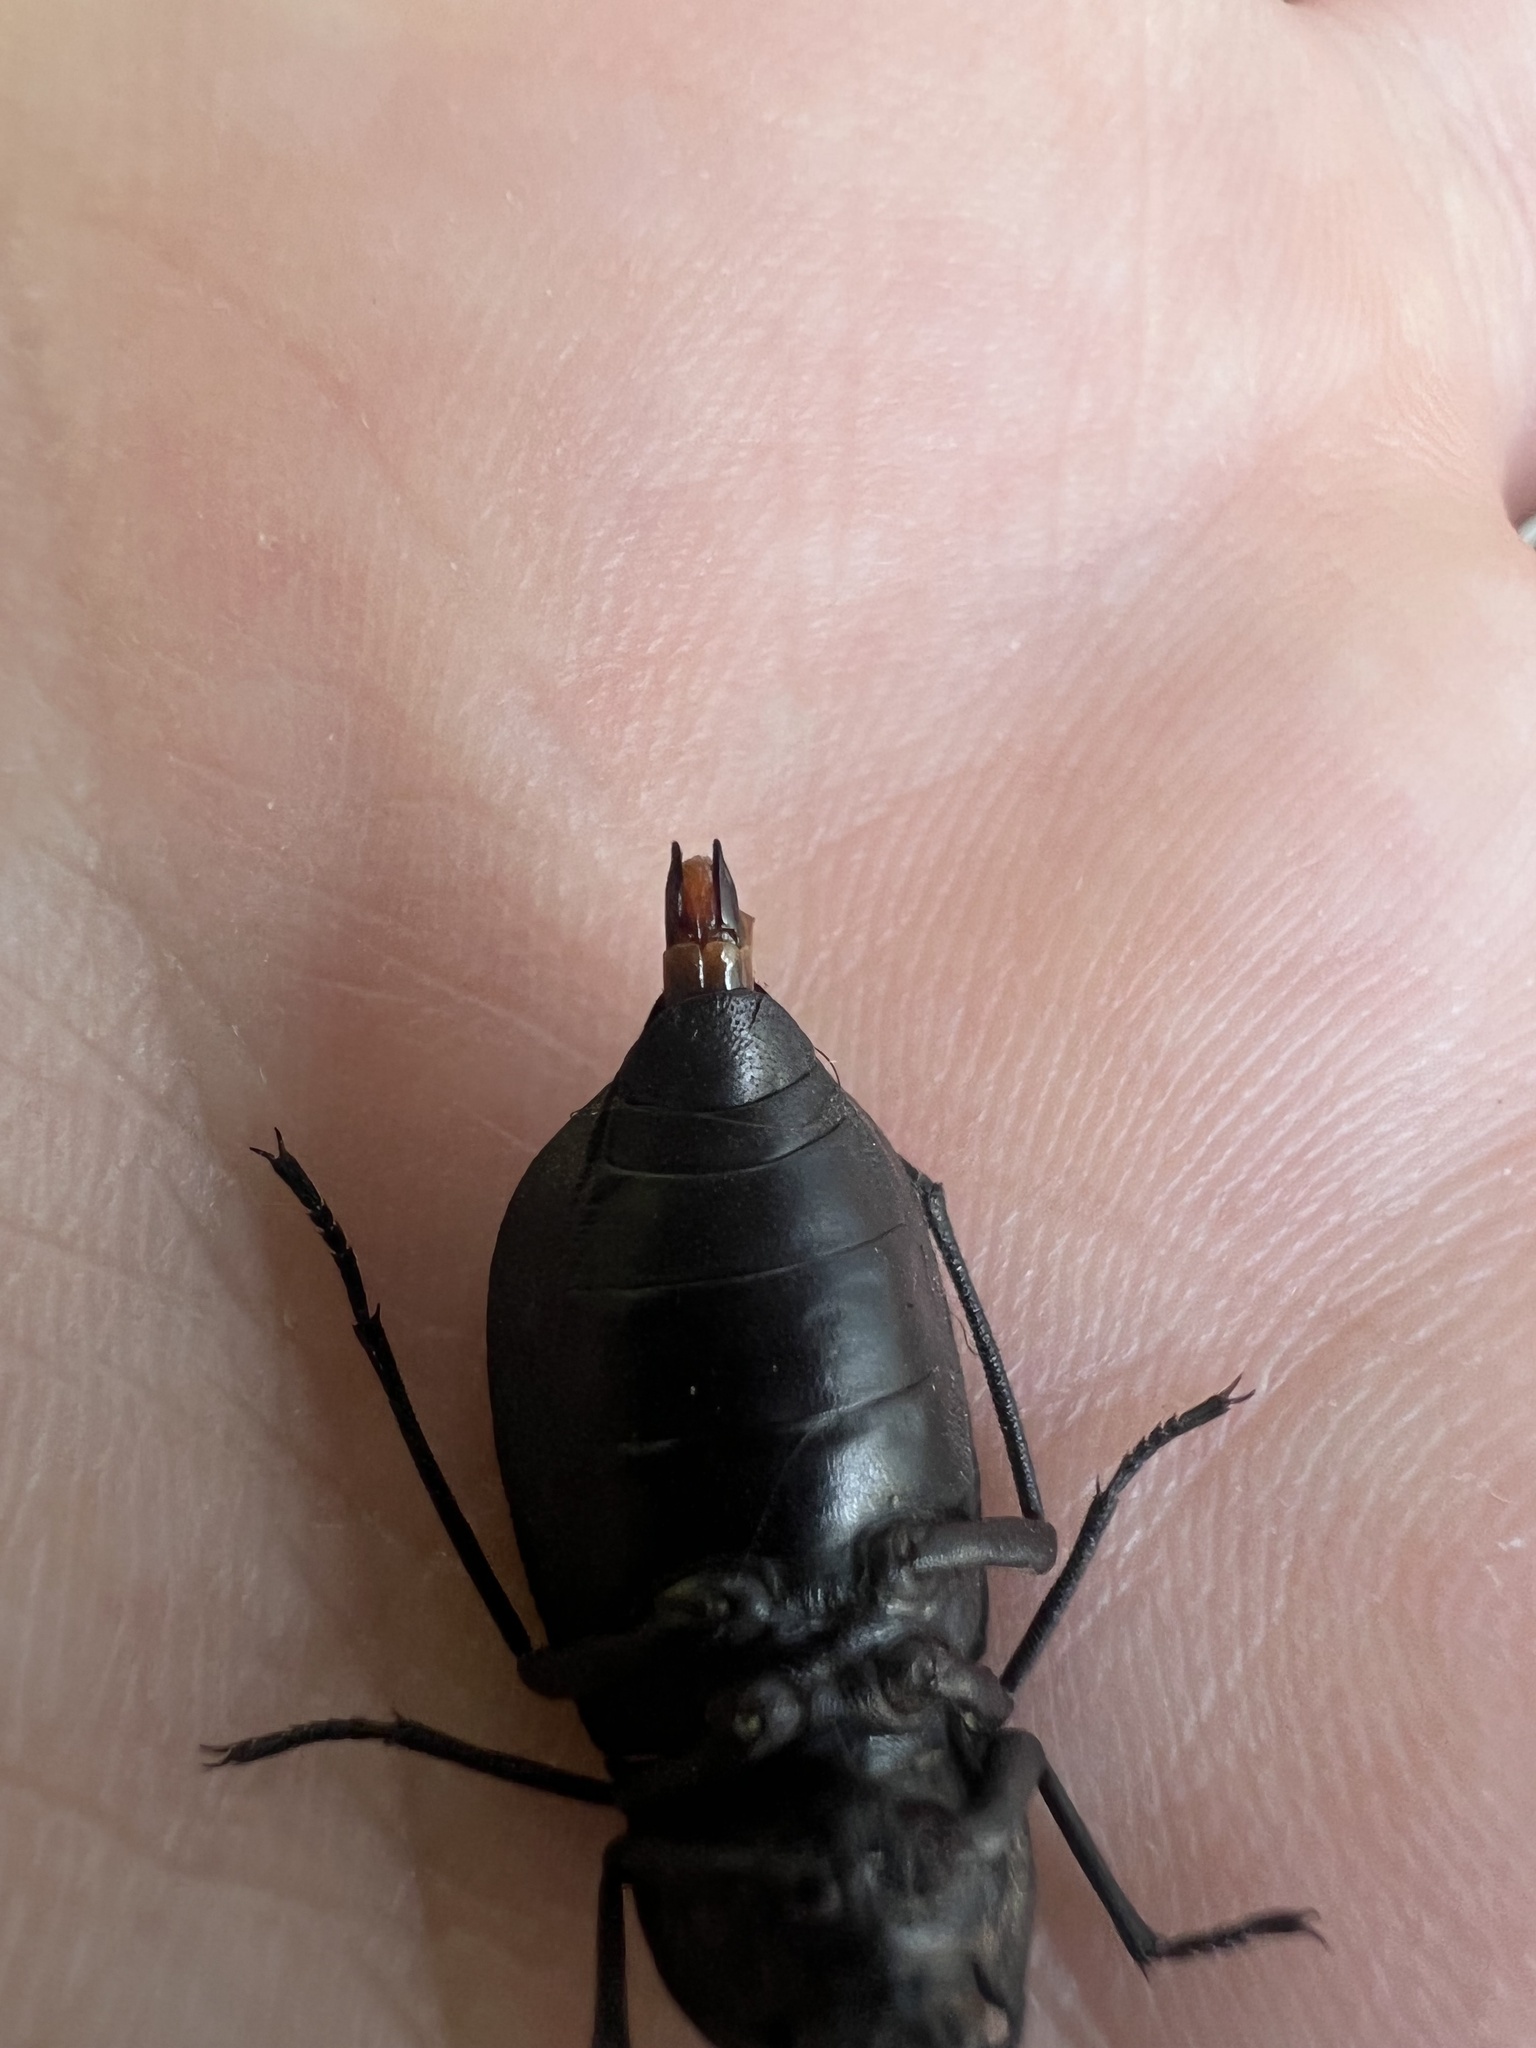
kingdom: Animalia
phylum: Arthropoda
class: Insecta
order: Coleoptera
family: Tenebrionidae
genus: Stenomorpha
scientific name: Stenomorpha opaca
